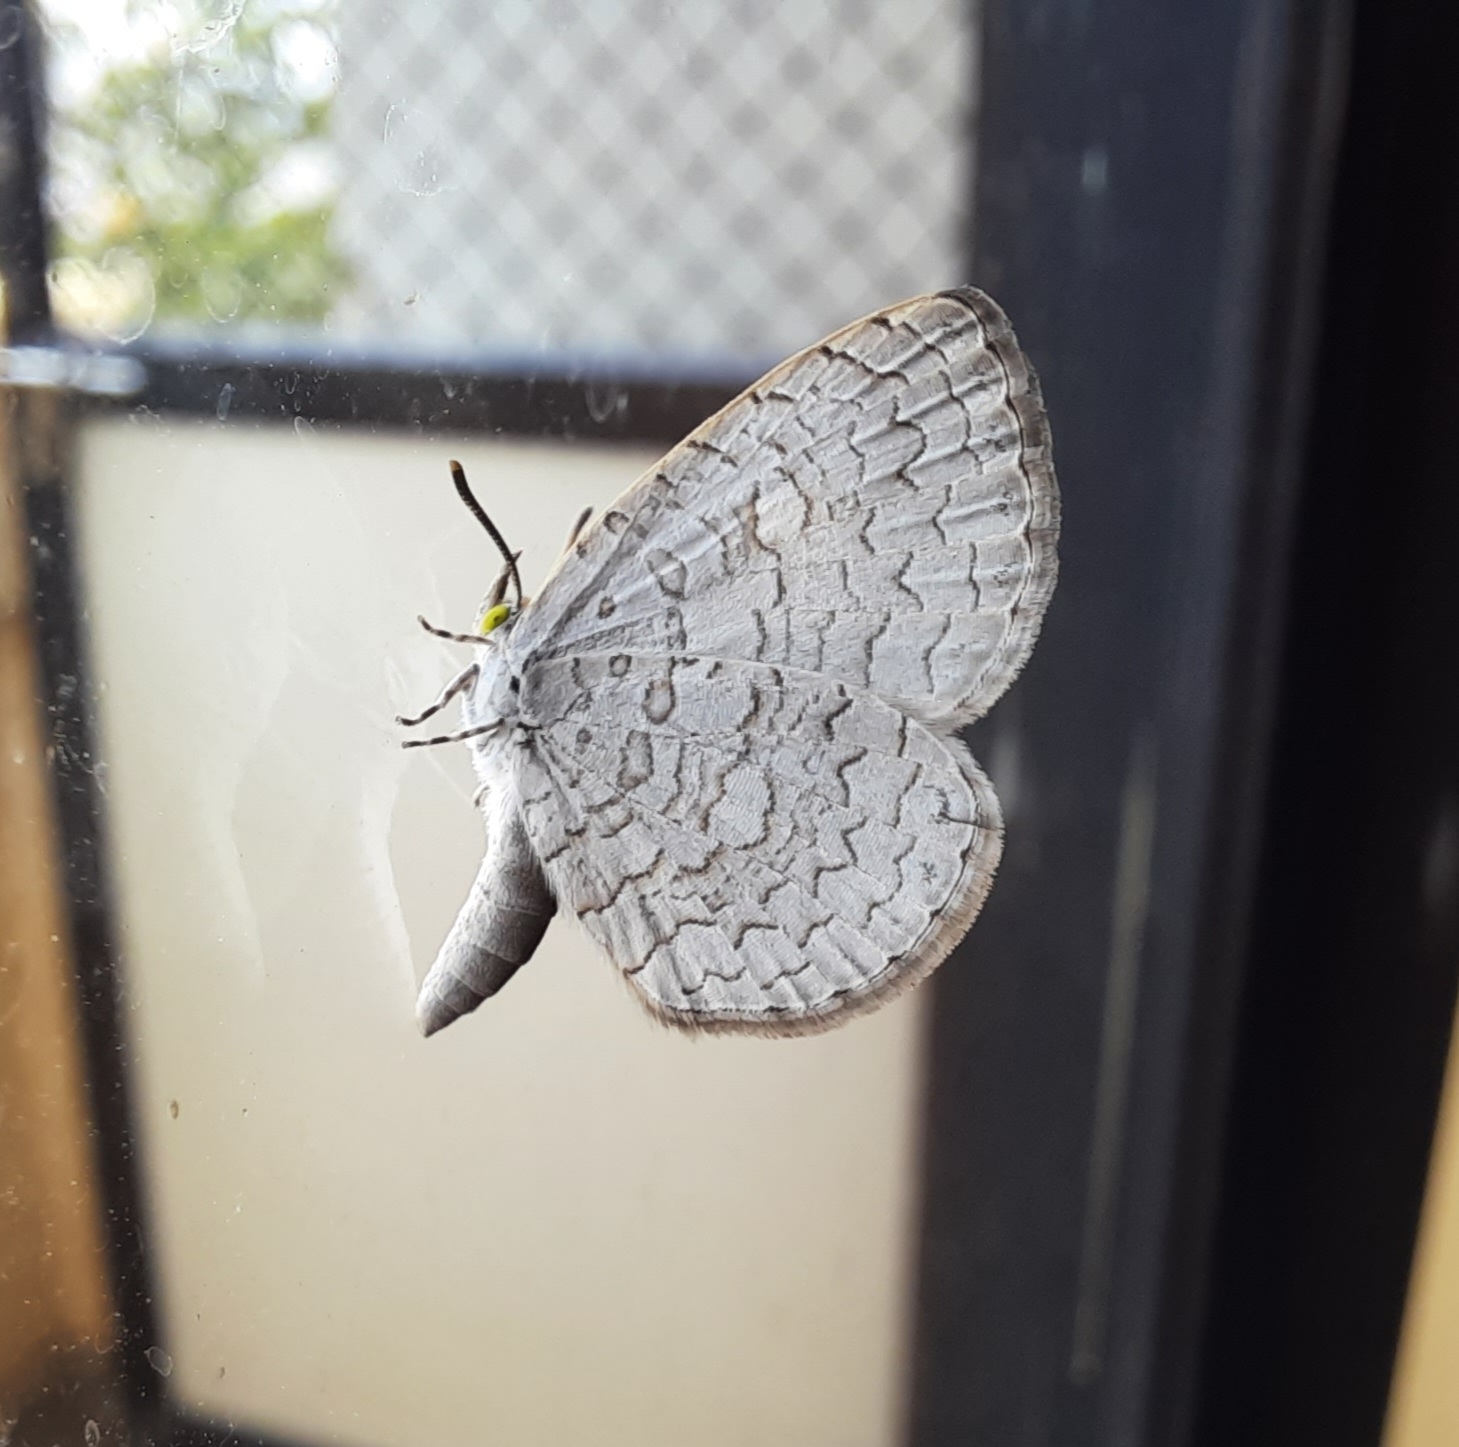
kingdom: Animalia
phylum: Arthropoda
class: Insecta
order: Lepidoptera
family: Lycaenidae
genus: Spalgis
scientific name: Spalgis epius
